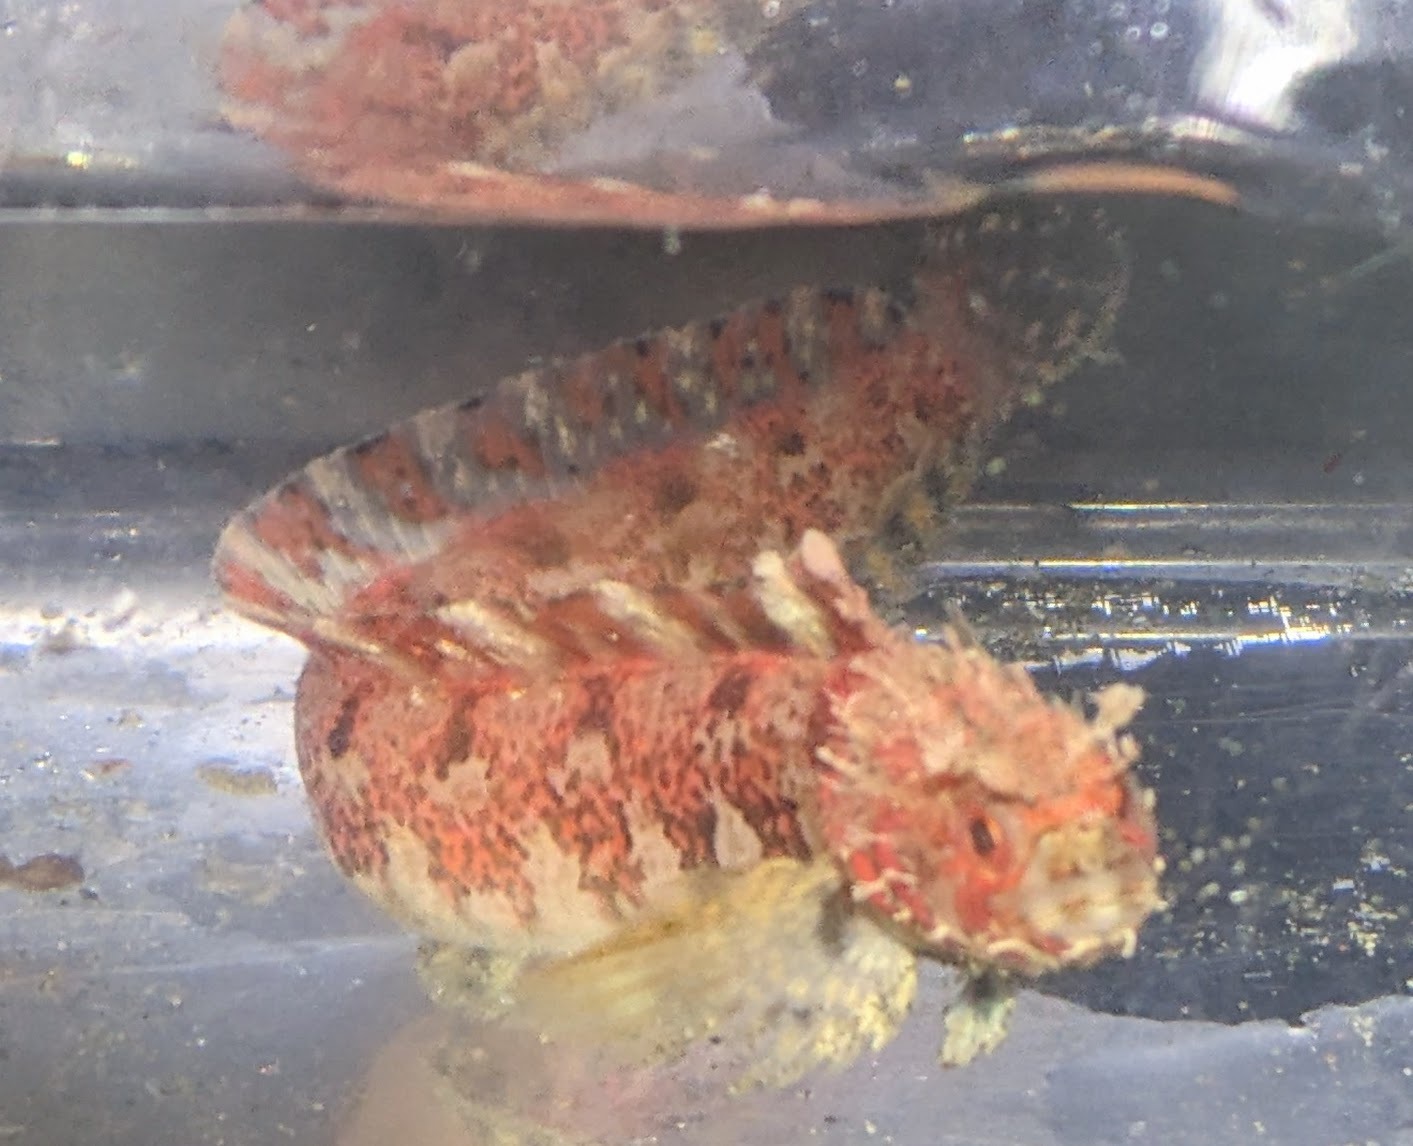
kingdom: Animalia
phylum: Chordata
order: Perciformes
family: Stichaeidae
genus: Chirolophis
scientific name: Chirolophis nugator
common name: Mosshead warbonnet
